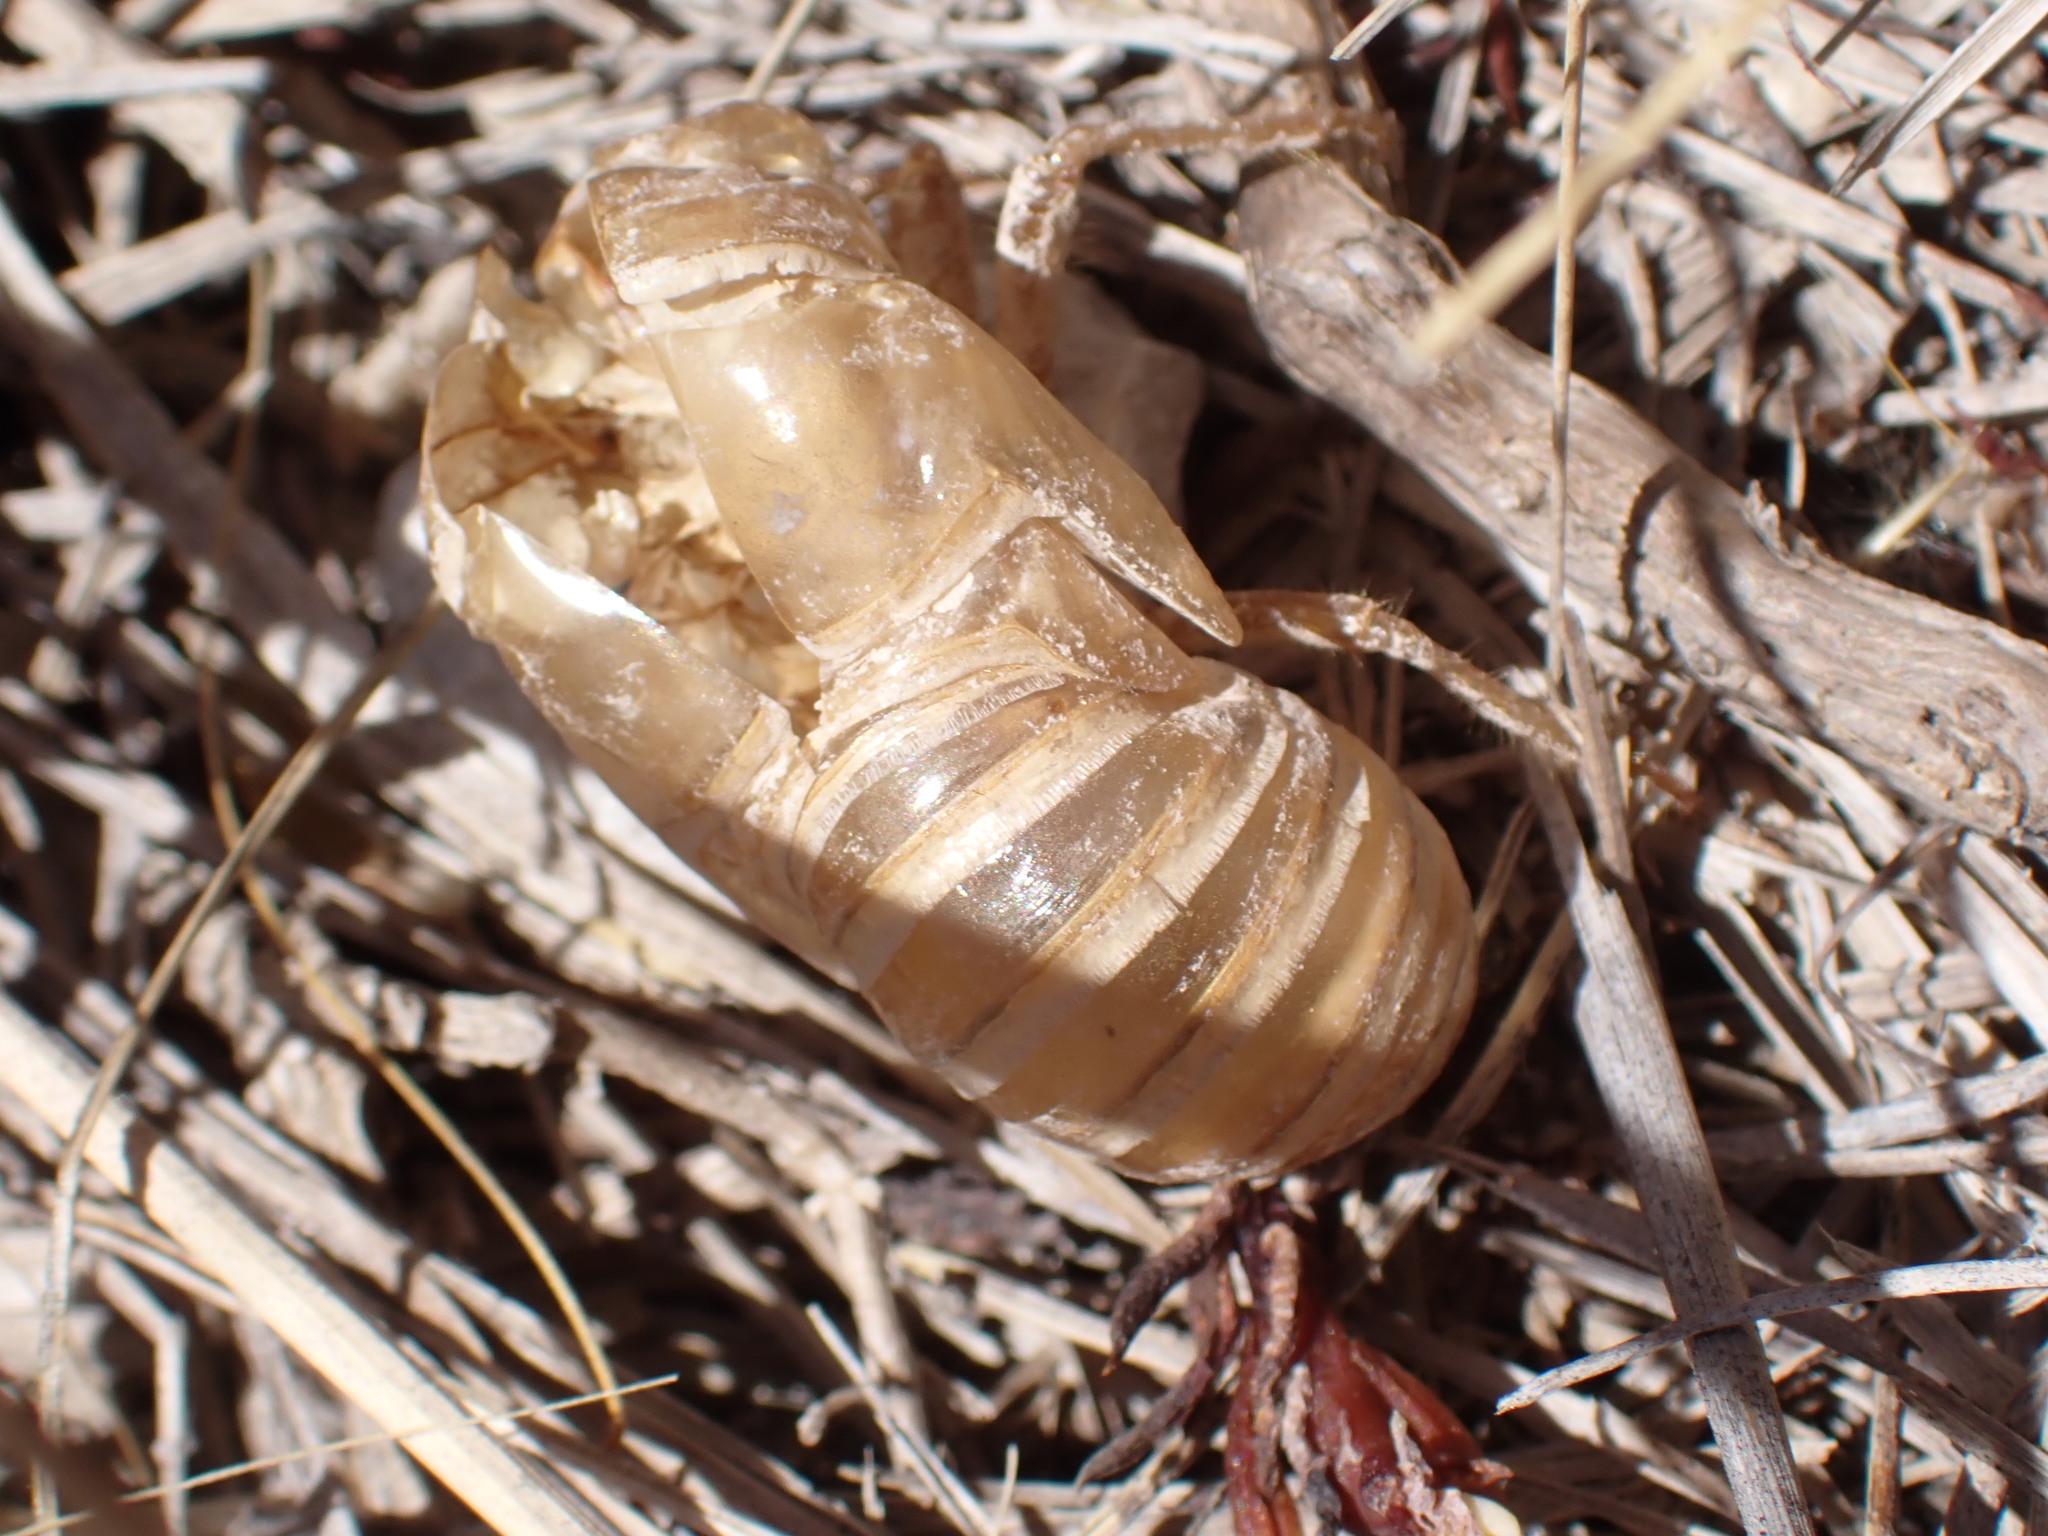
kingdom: Animalia
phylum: Arthropoda
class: Insecta
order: Hemiptera
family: Cicadidae
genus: Lyristes
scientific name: Lyristes plebejus
